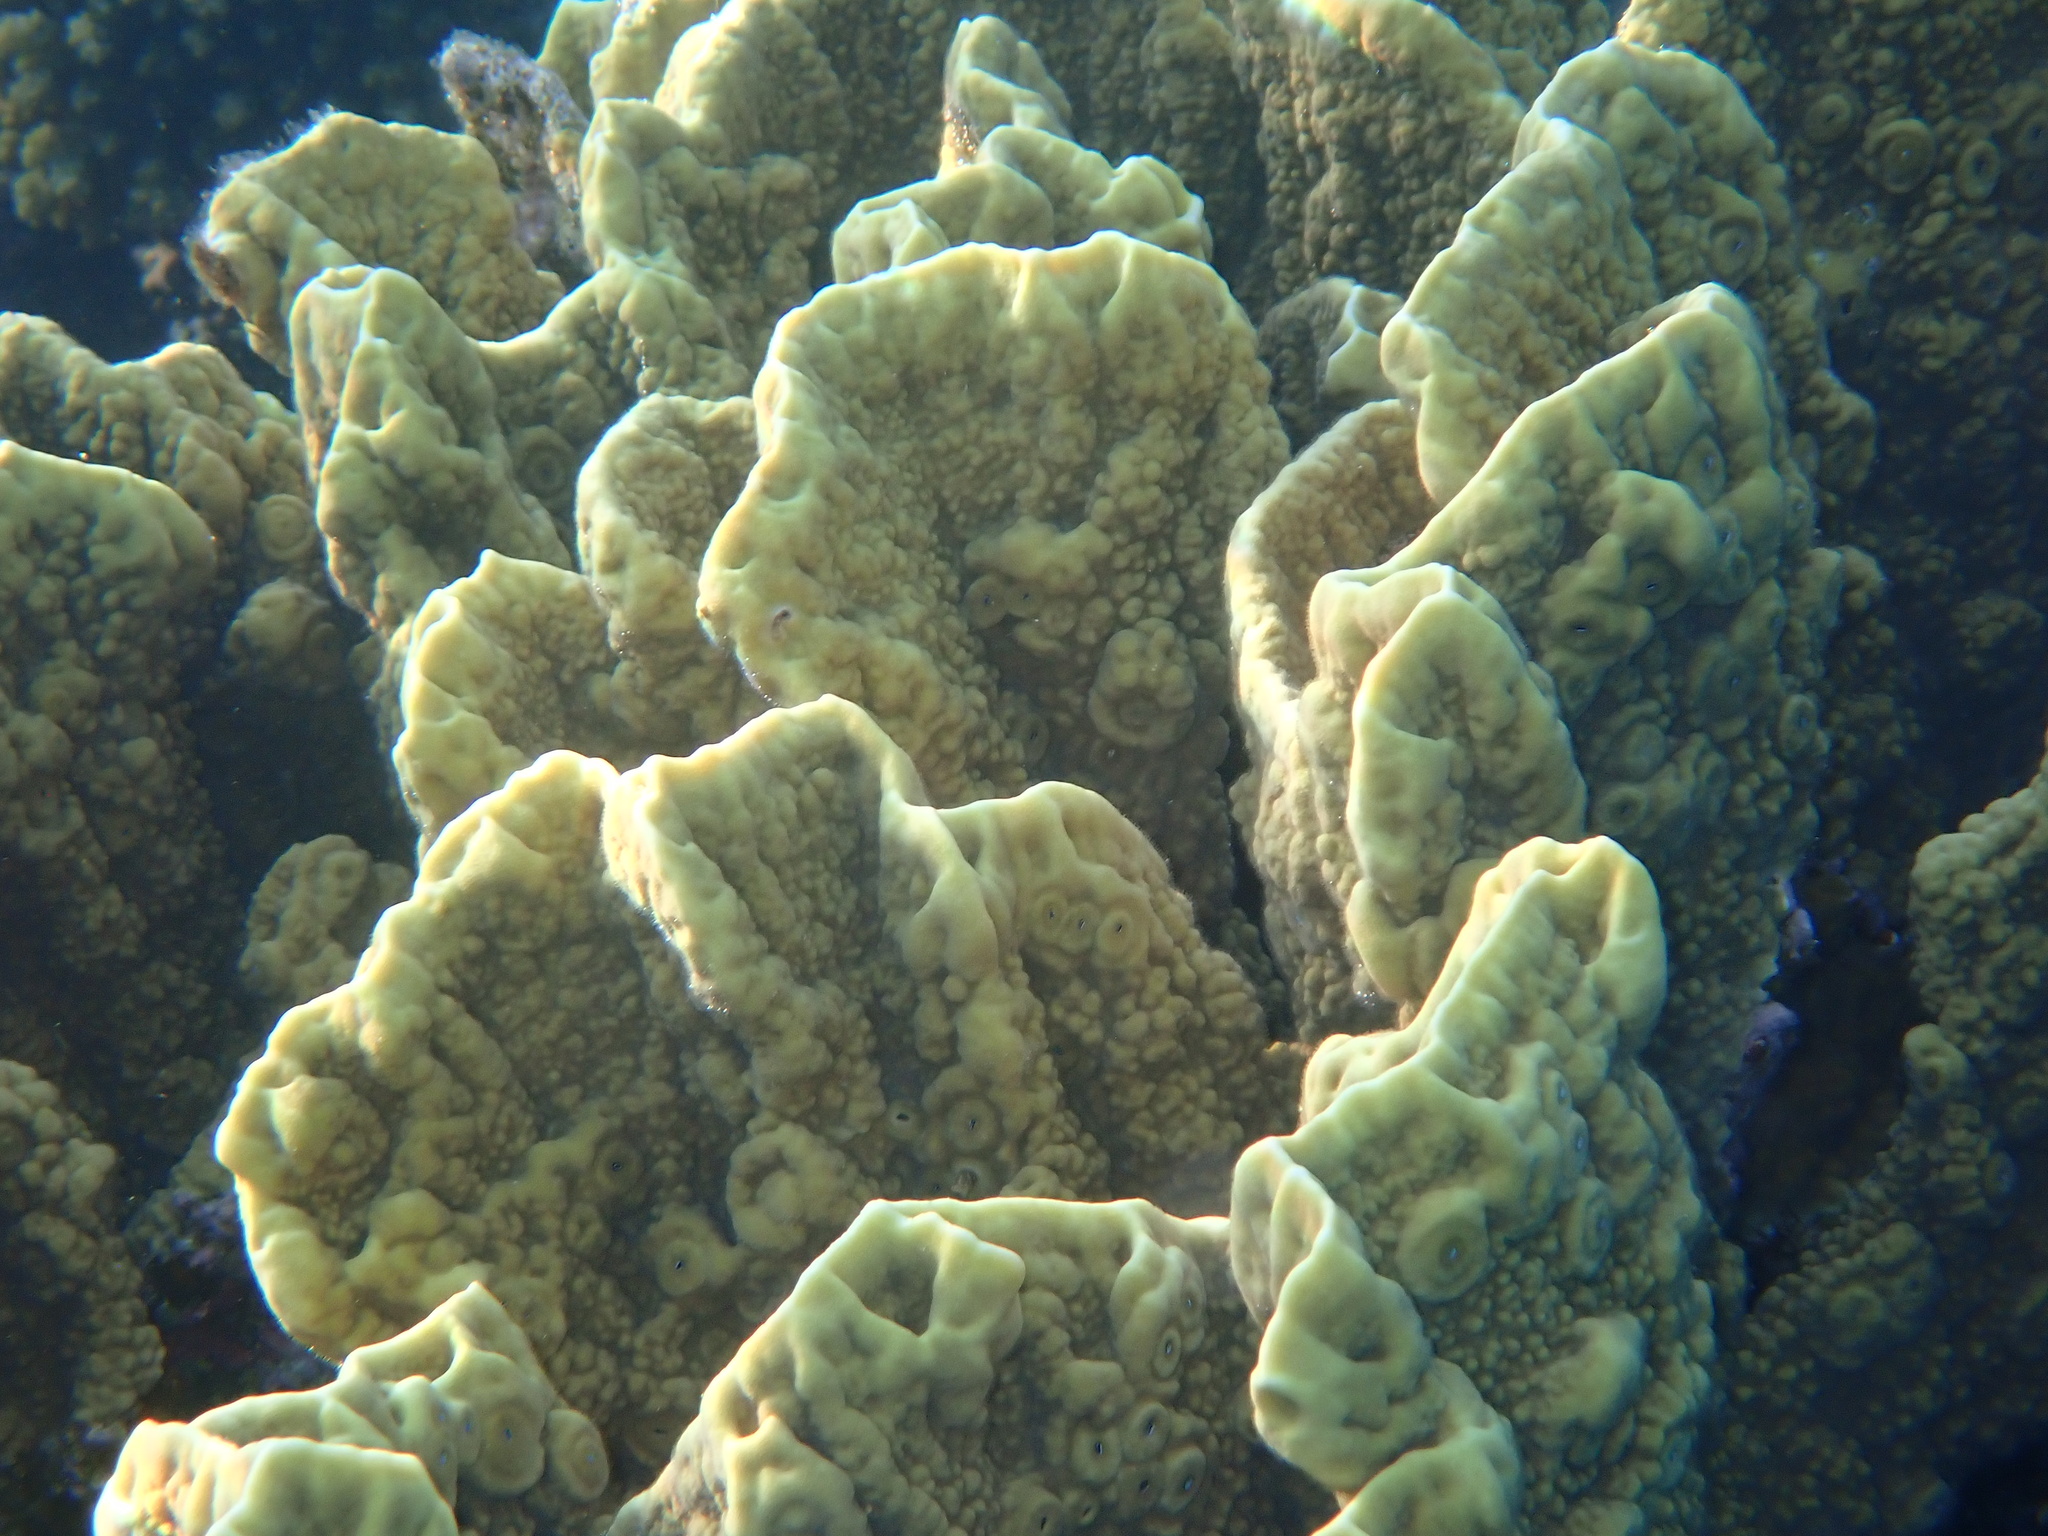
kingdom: Animalia
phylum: Cnidaria
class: Hydrozoa
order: Anthoathecata
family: Milleporidae
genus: Millepora
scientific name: Millepora platyphylla
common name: Sheet fire coral
